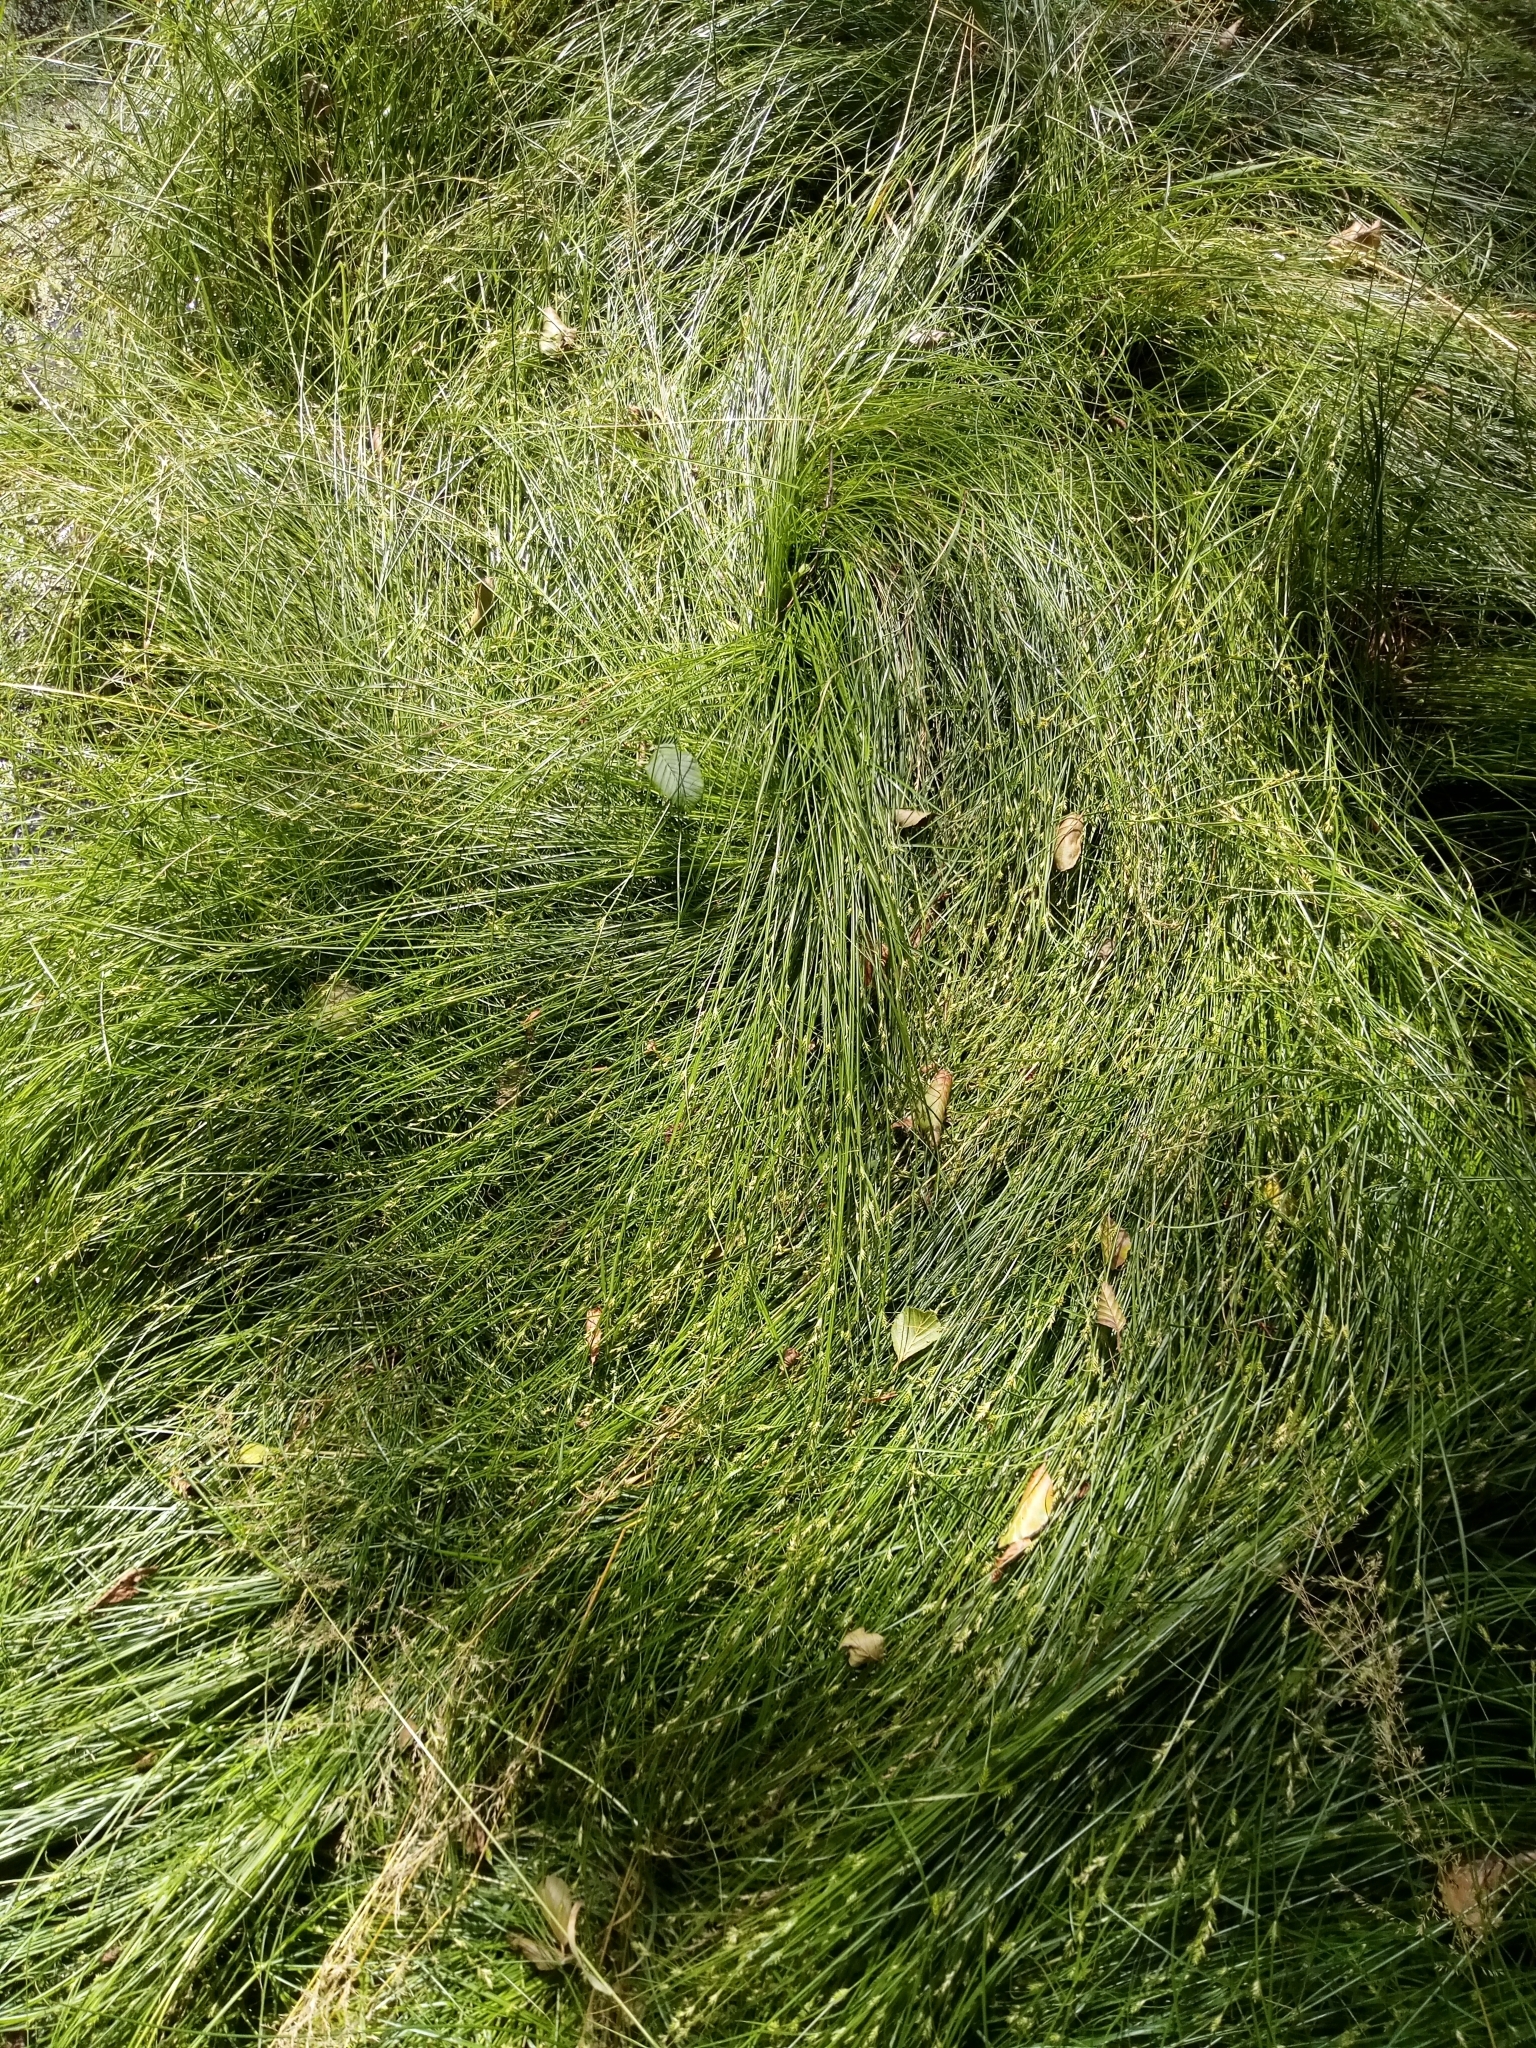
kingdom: Plantae
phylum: Tracheophyta
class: Liliopsida
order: Poales
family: Cyperaceae
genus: Carex
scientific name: Carex remota
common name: Remote sedge
